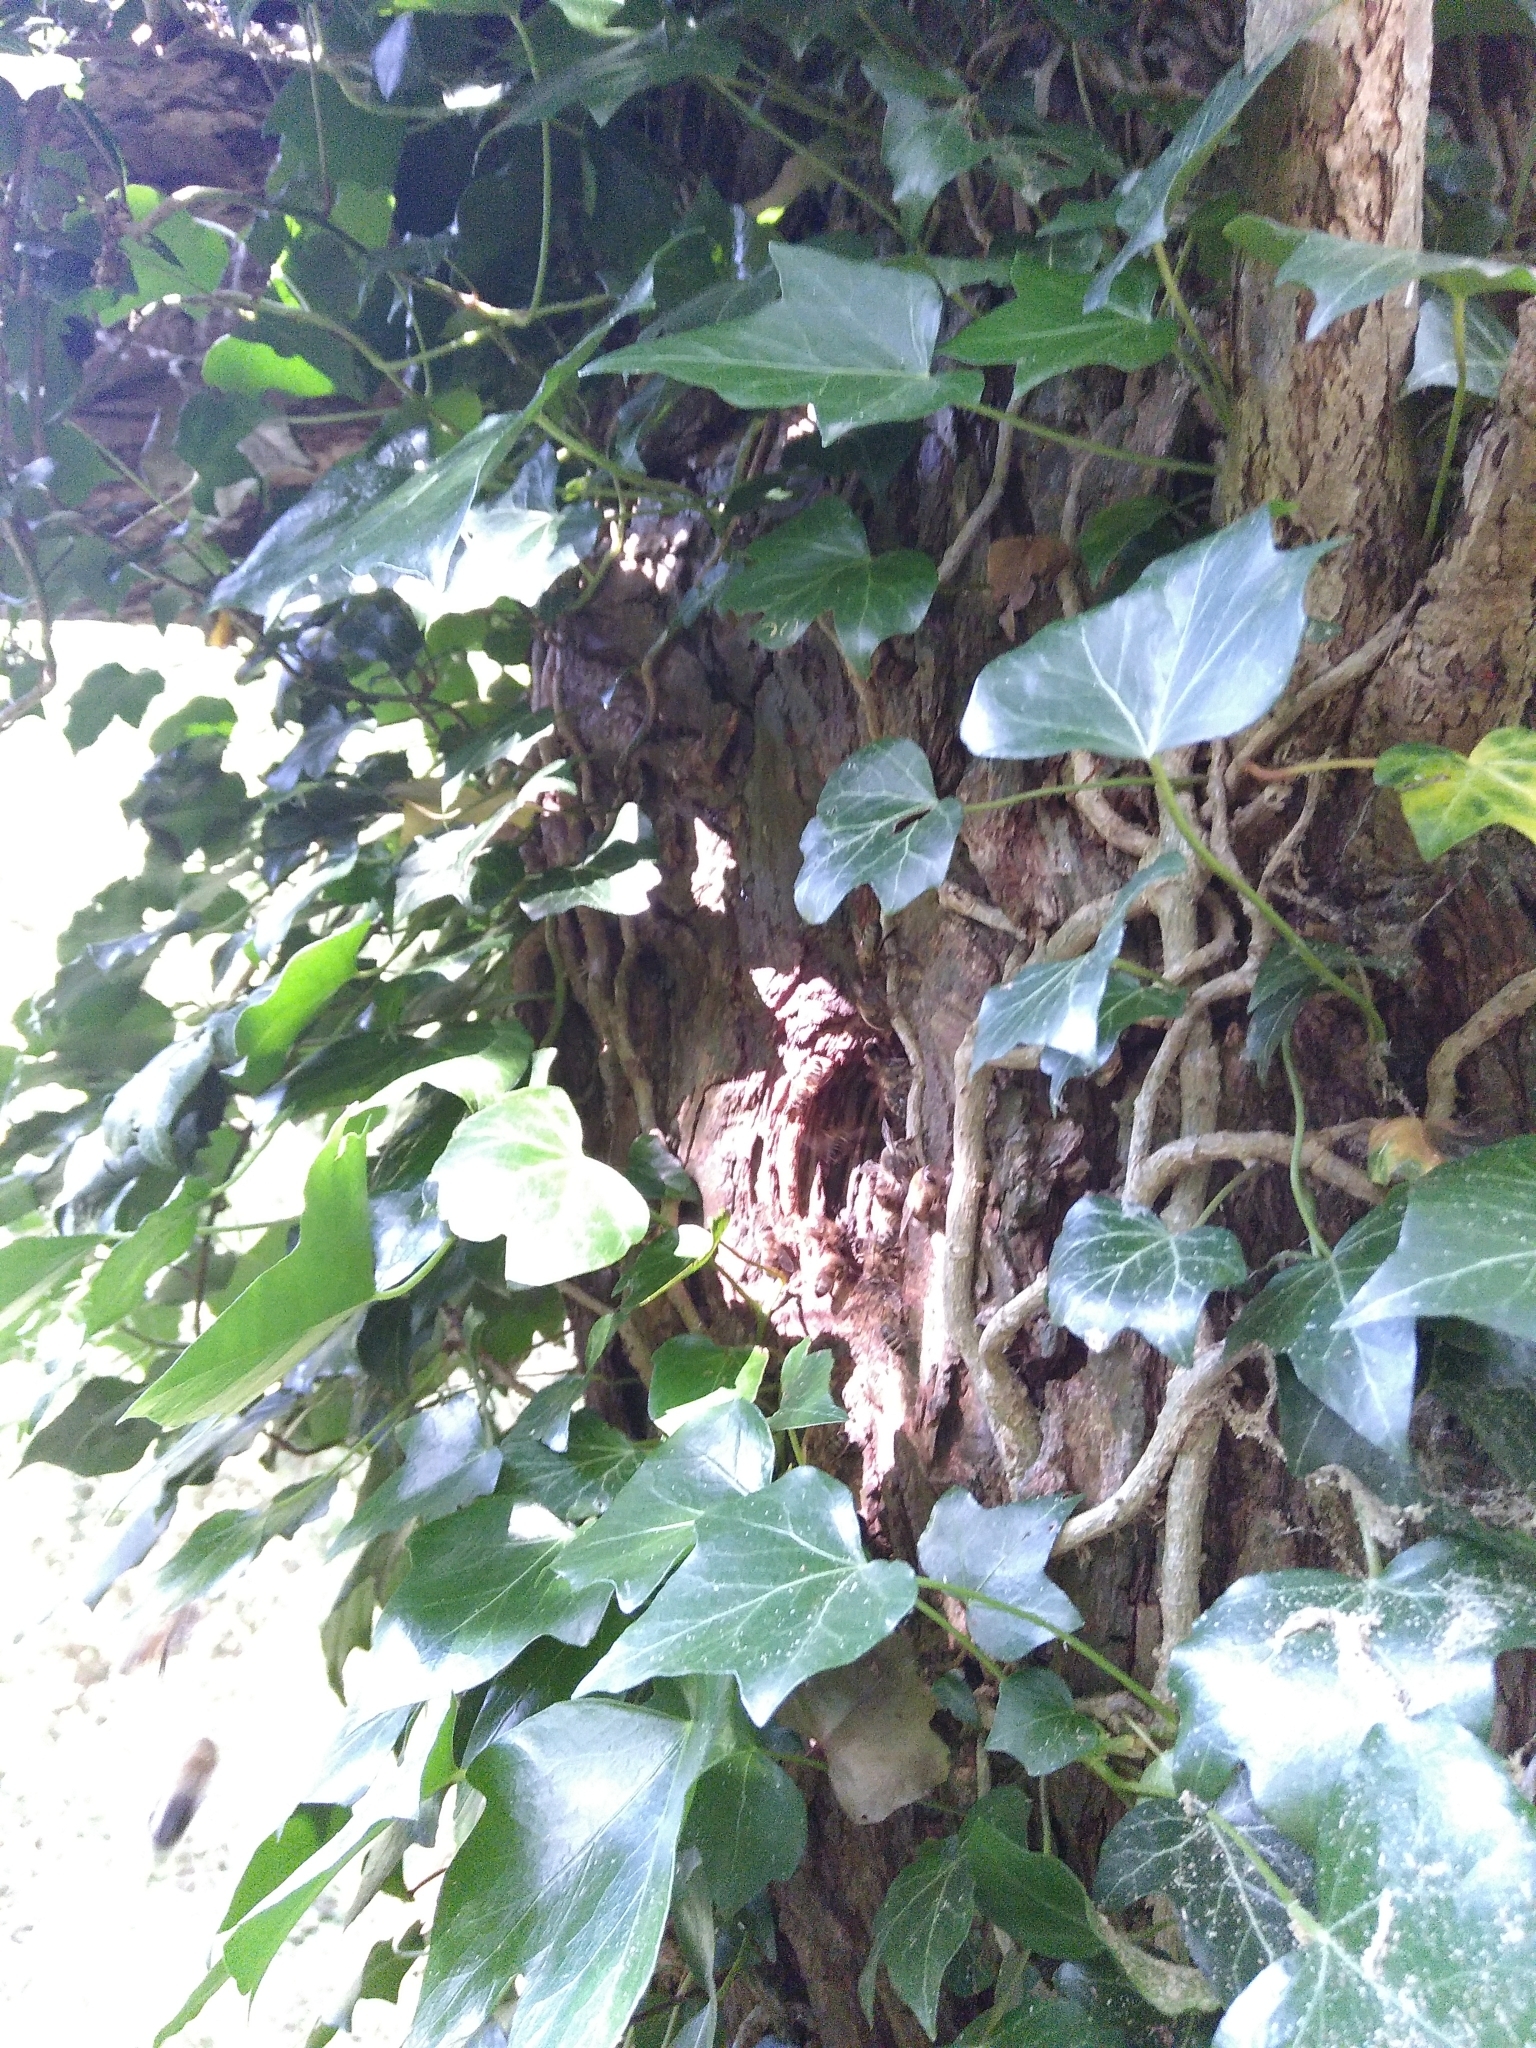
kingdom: Animalia
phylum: Arthropoda
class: Insecta
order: Hymenoptera
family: Apidae
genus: Apis
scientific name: Apis mellifera
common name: Honey bee
